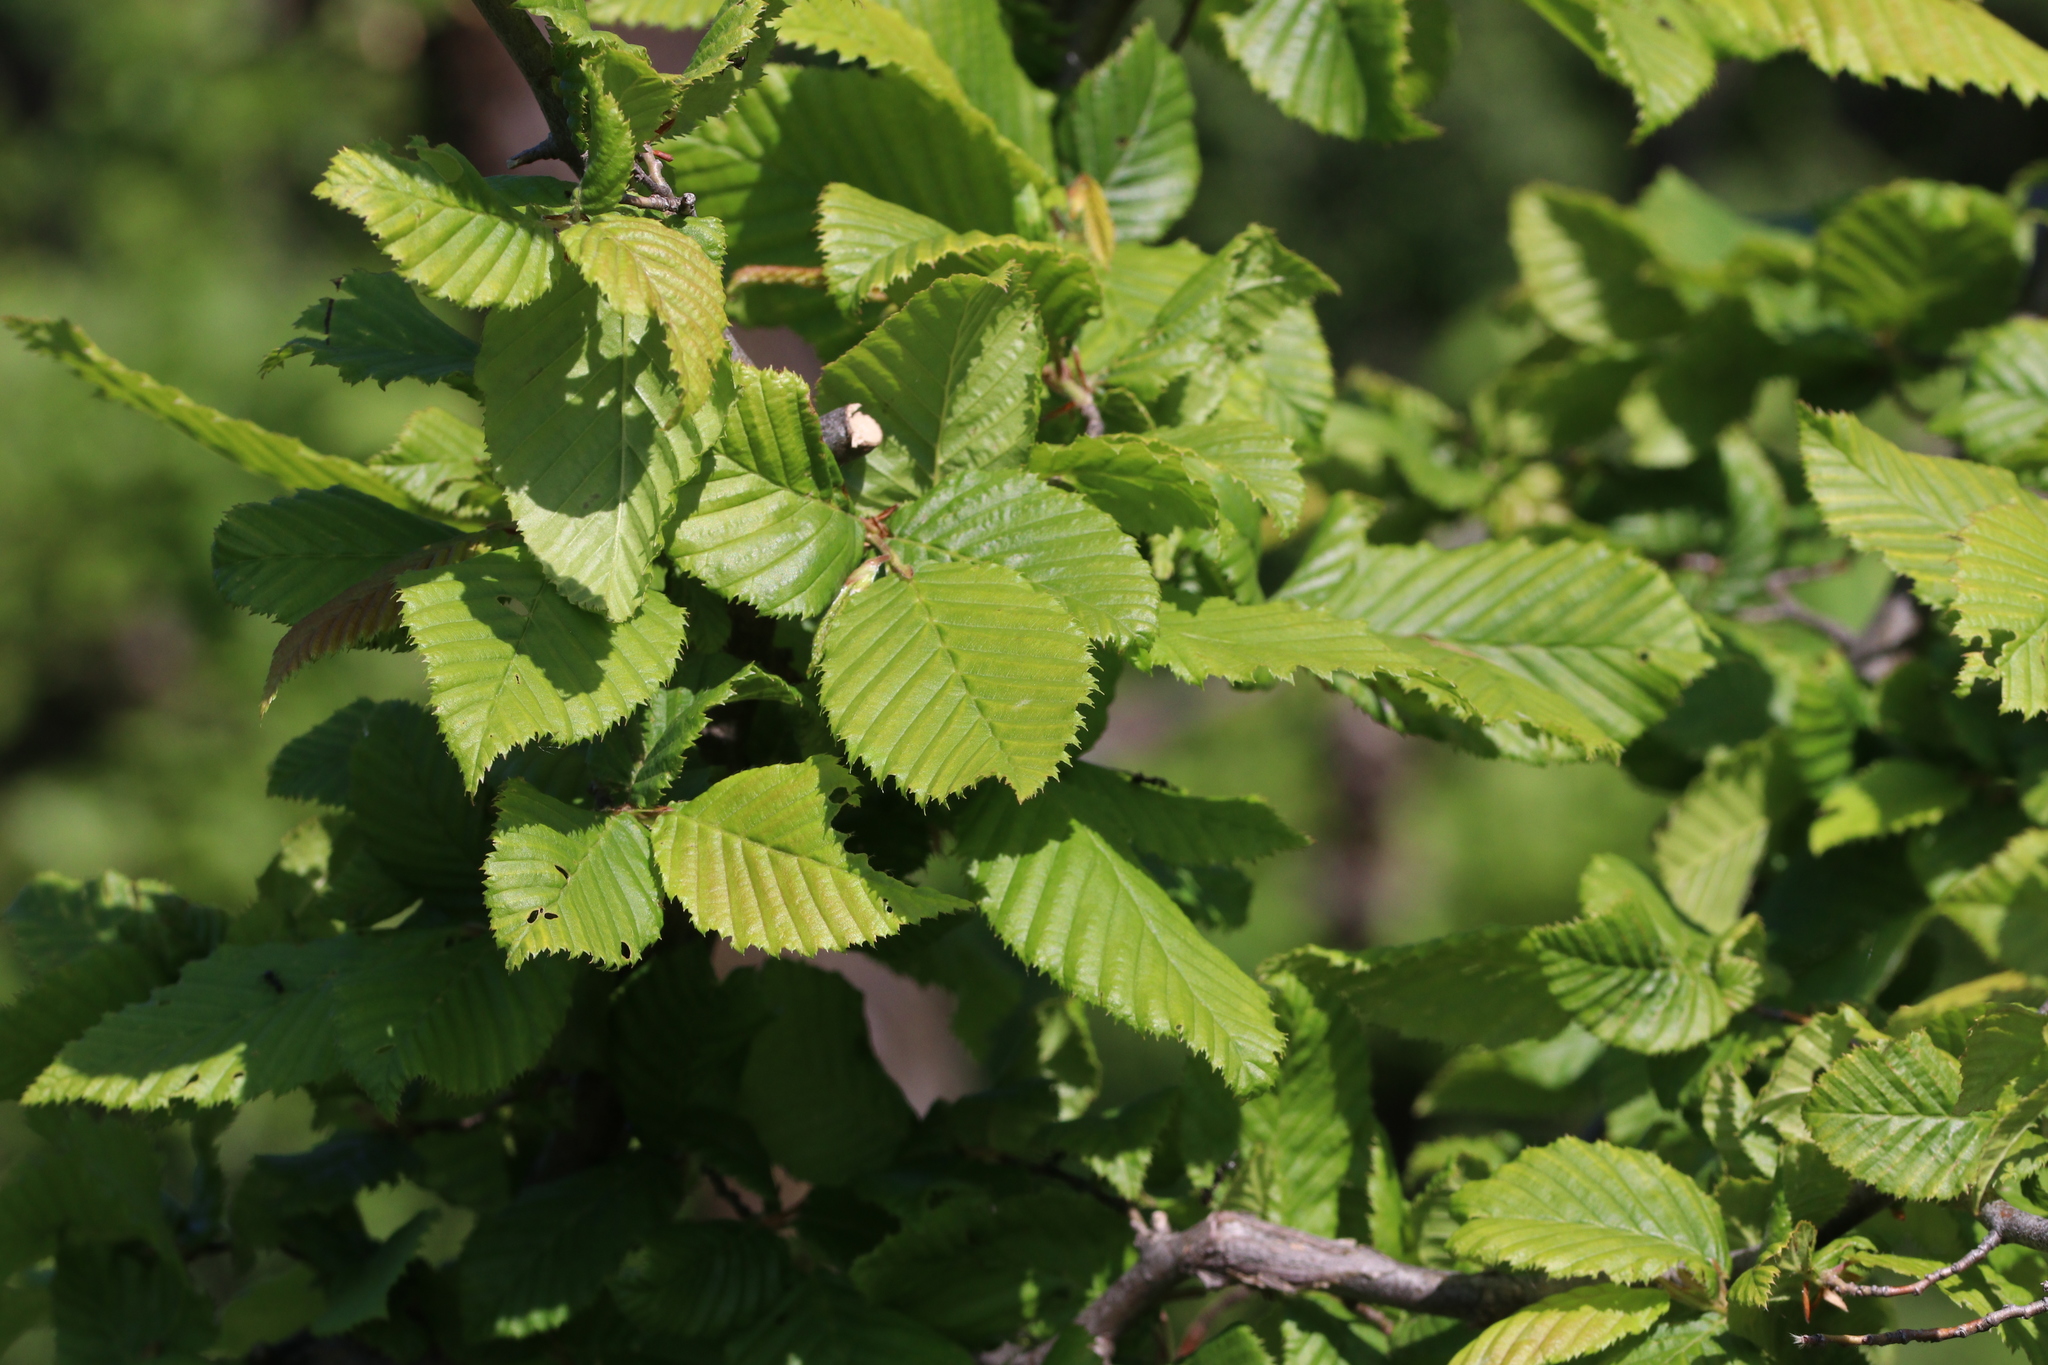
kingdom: Plantae
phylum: Tracheophyta
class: Magnoliopsida
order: Fagales
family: Betulaceae
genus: Carpinus
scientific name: Carpinus betulus
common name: Hornbeam
